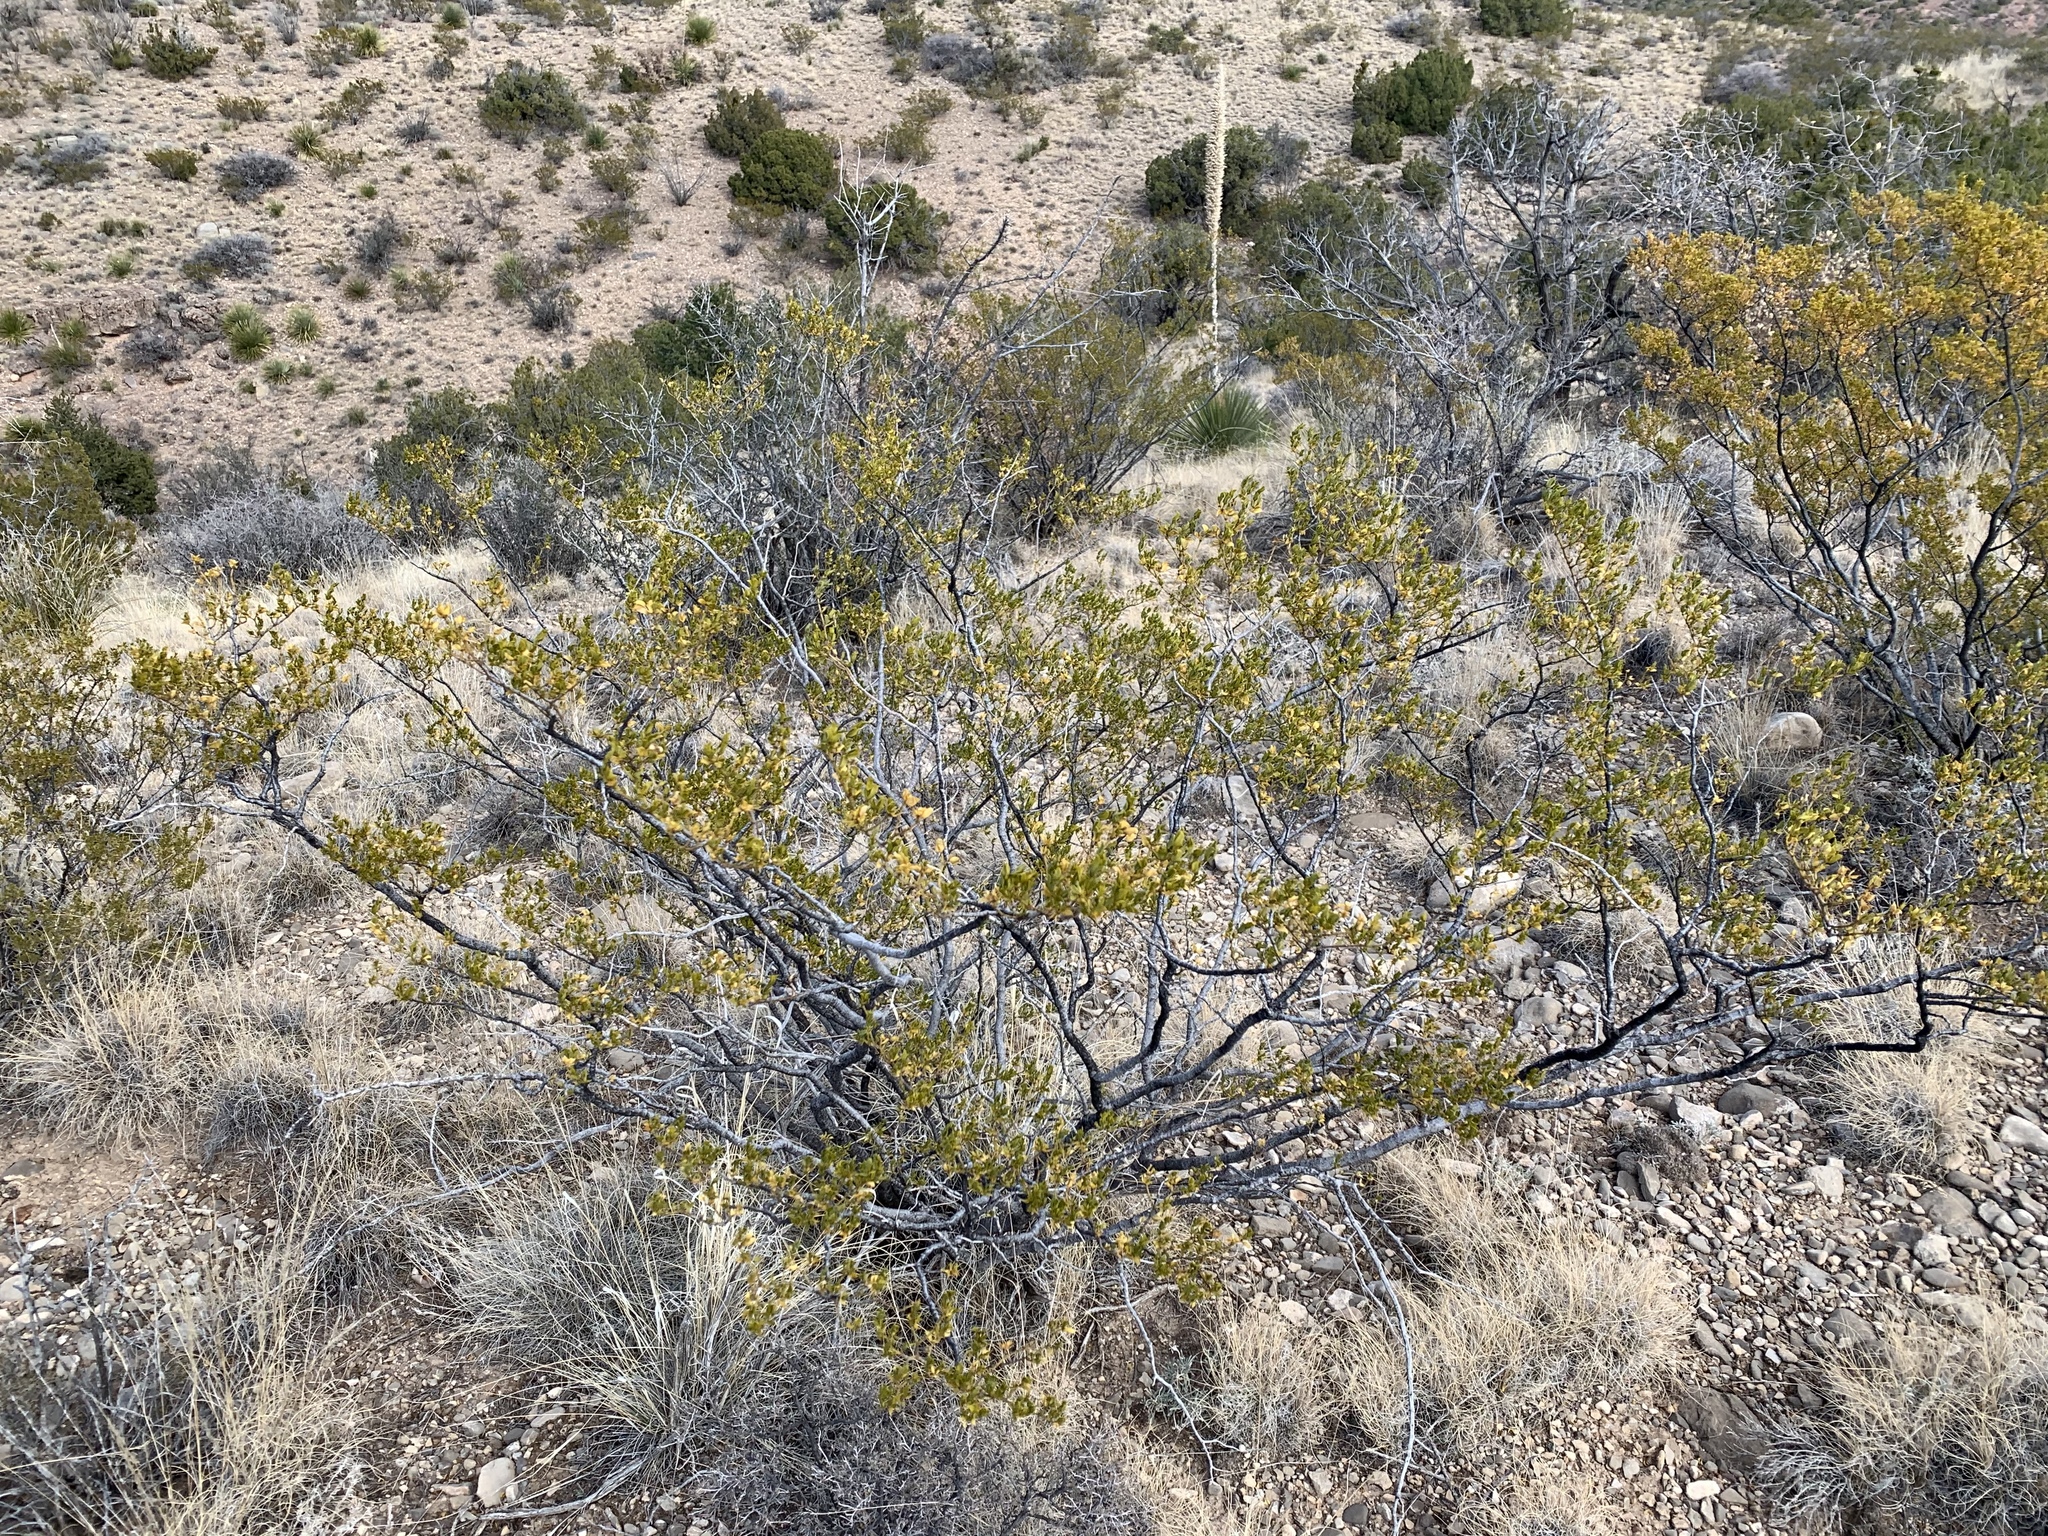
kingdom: Plantae
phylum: Tracheophyta
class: Magnoliopsida
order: Zygophyllales
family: Zygophyllaceae
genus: Larrea
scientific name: Larrea tridentata
